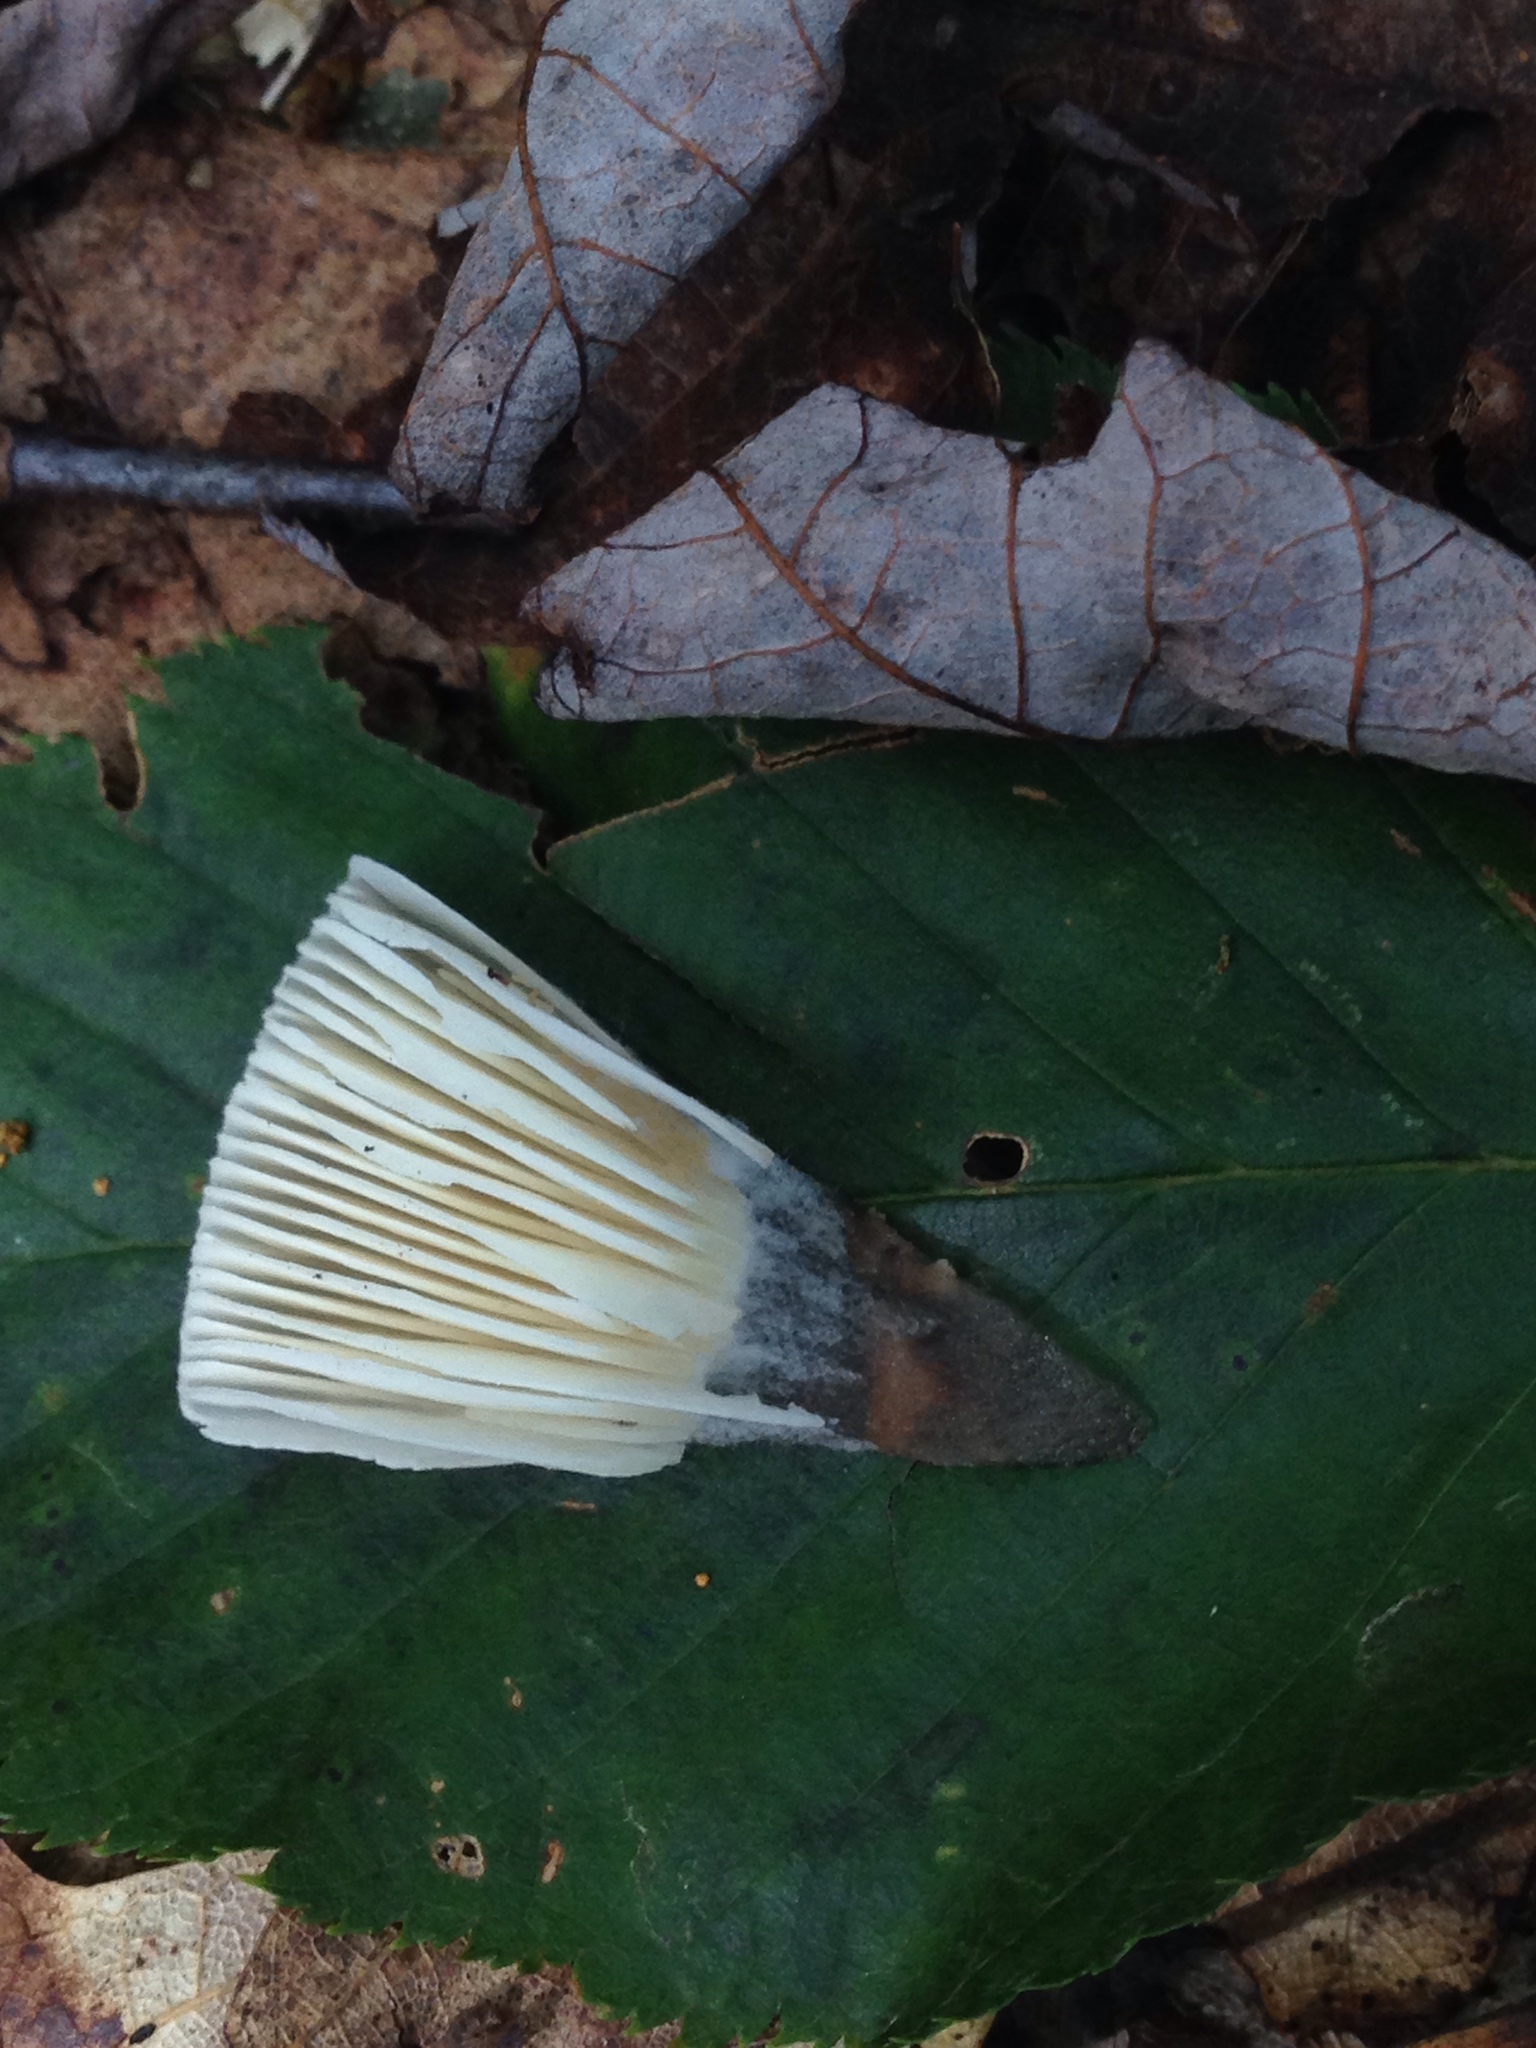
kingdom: Fungi
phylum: Basidiomycota
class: Agaricomycetes
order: Agaricales
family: Amanitaceae
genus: Amanita
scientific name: Amanita brunnescens
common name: Brown american star-footed amanita
